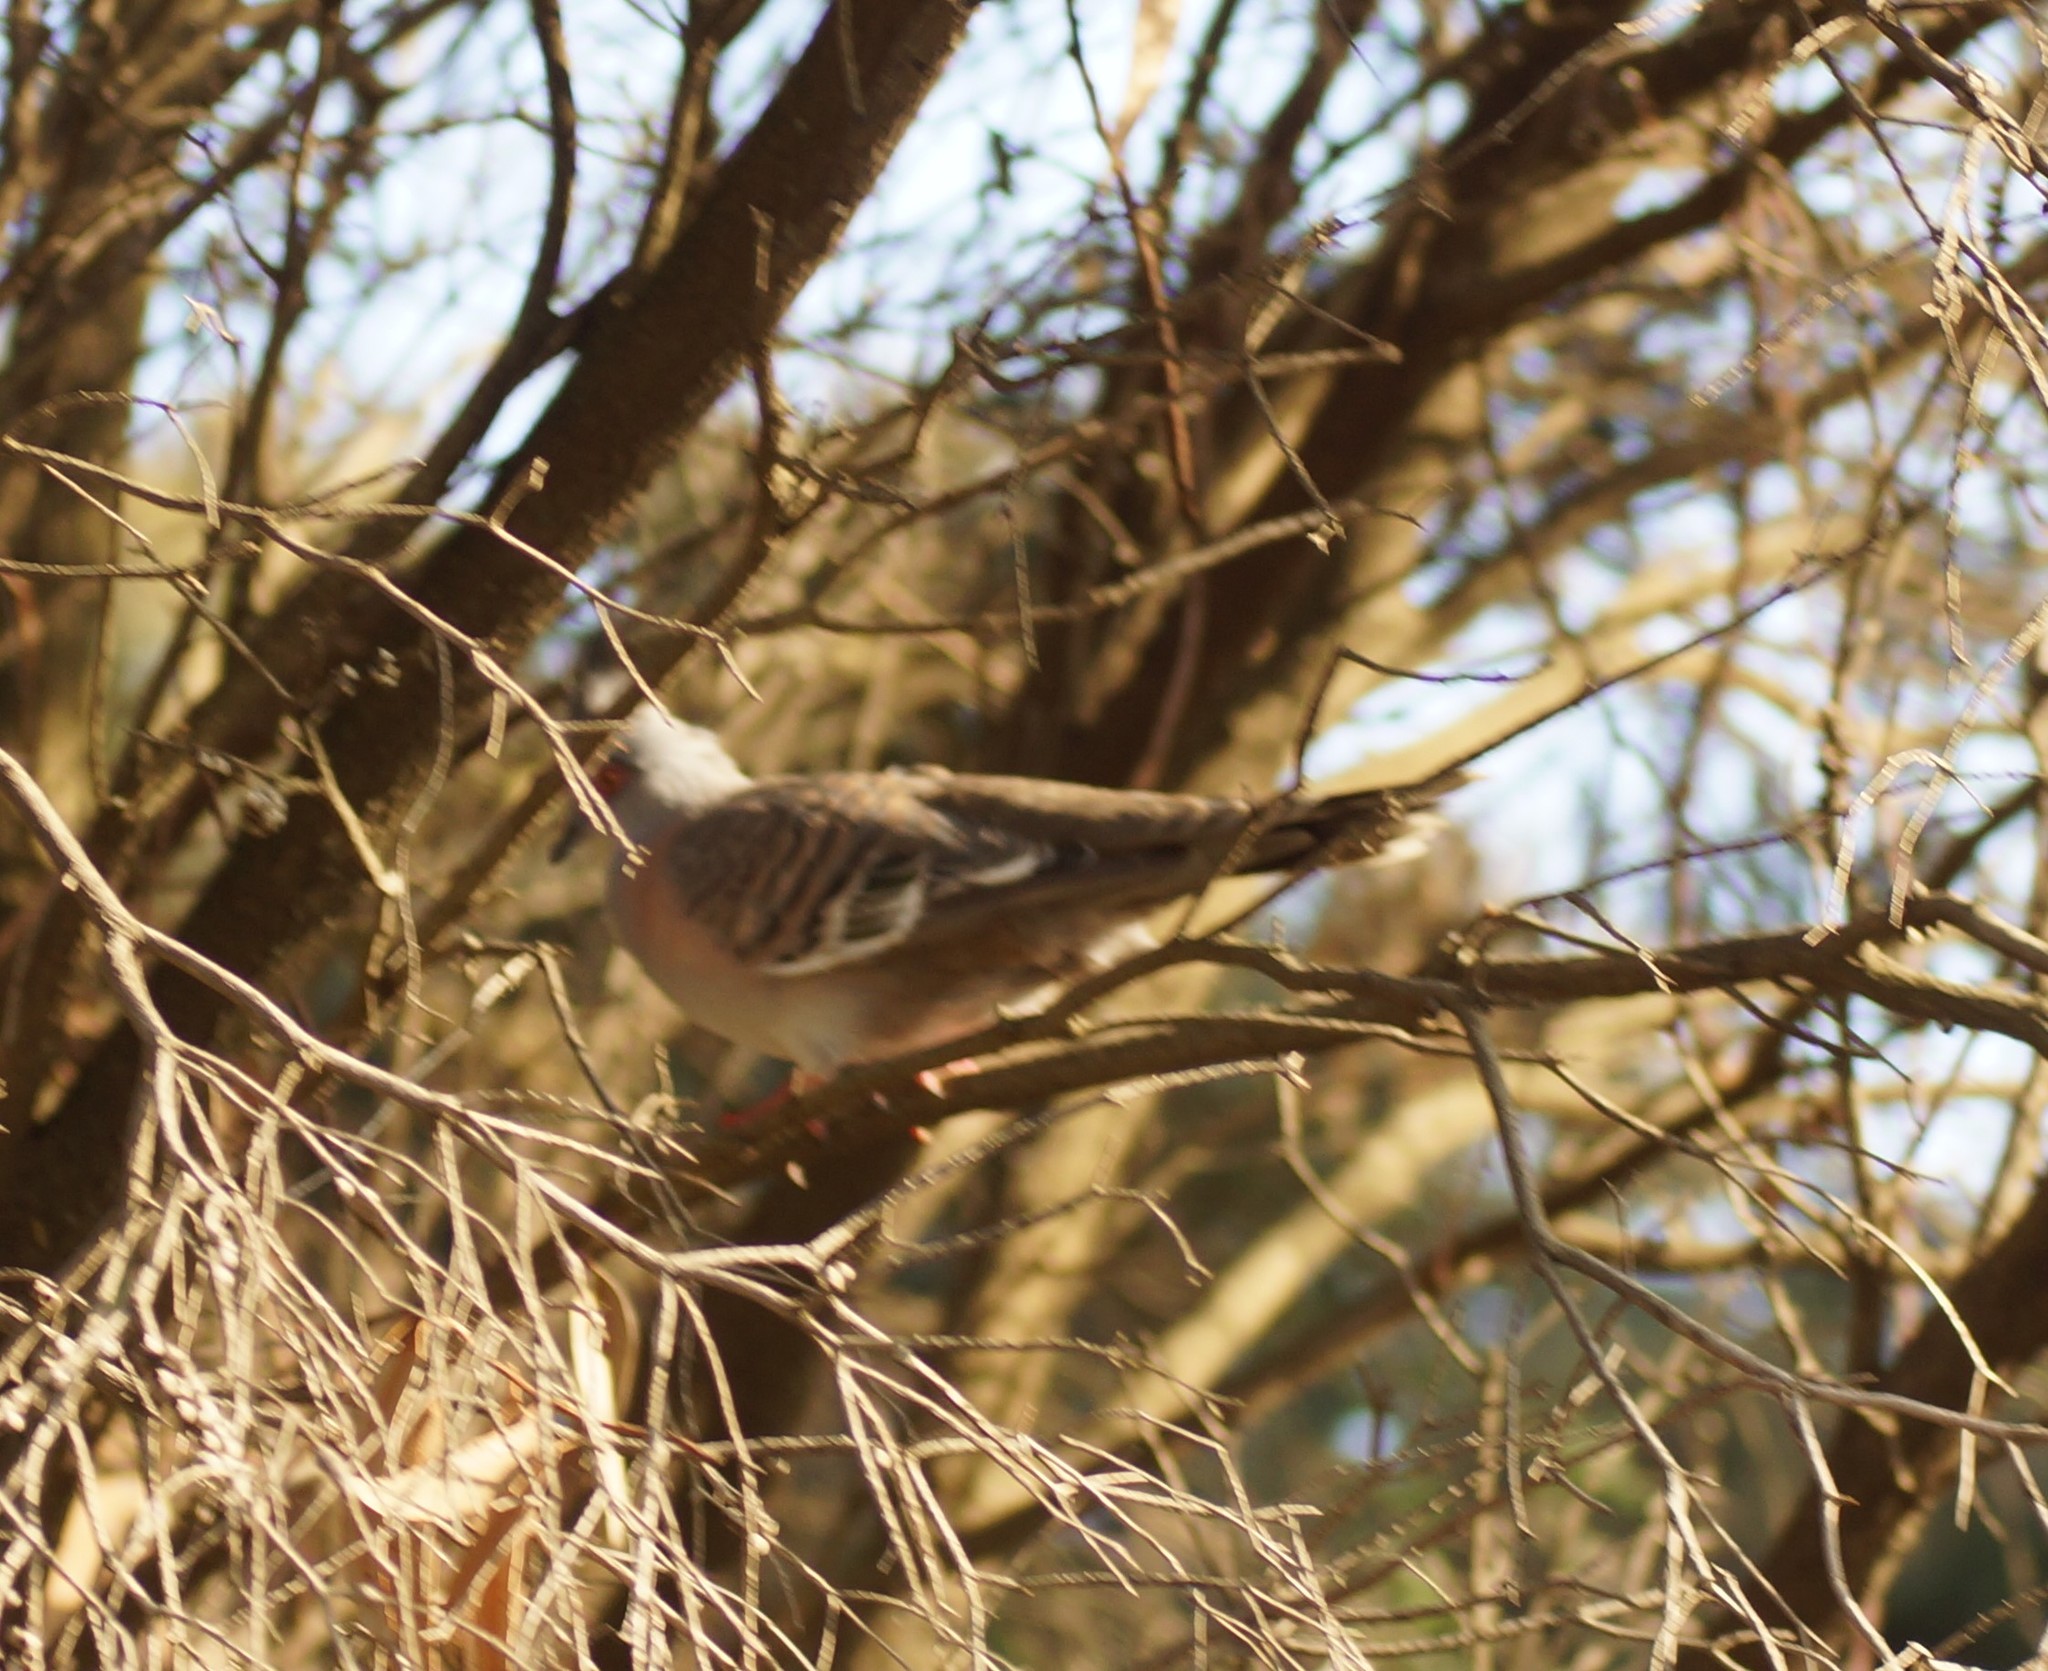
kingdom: Animalia
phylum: Chordata
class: Aves
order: Columbiformes
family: Columbidae
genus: Ocyphaps
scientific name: Ocyphaps lophotes
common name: Crested pigeon
